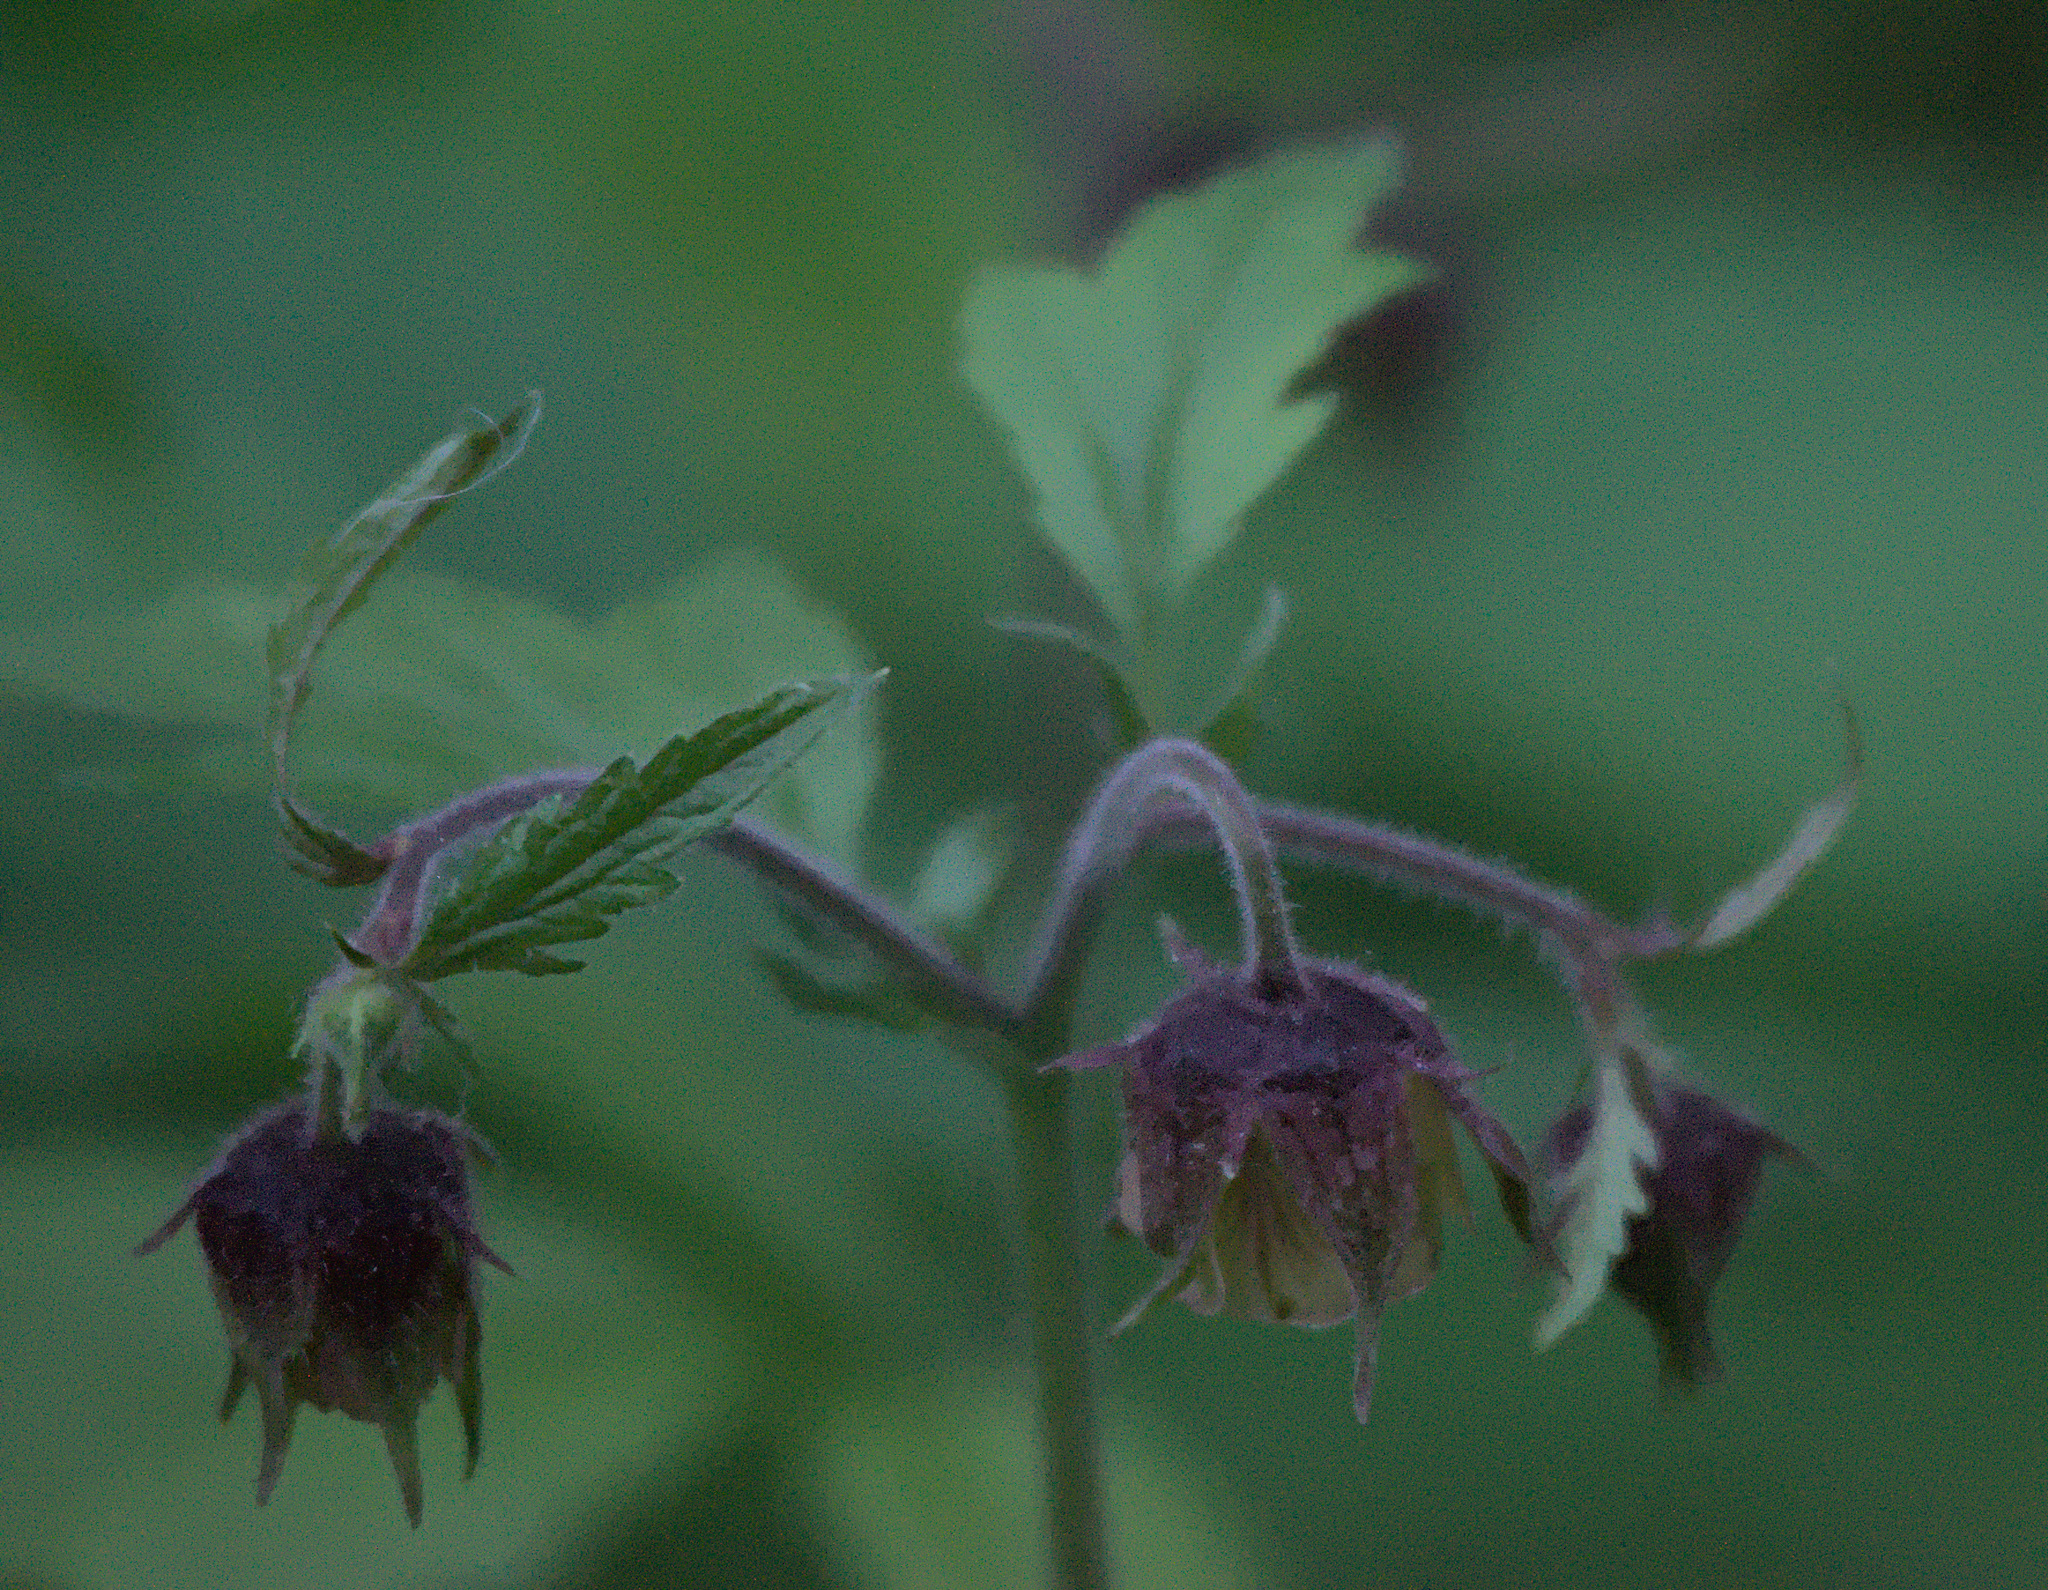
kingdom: Plantae
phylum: Tracheophyta
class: Magnoliopsida
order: Rosales
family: Rosaceae
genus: Geum
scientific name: Geum rivale
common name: Water avens
